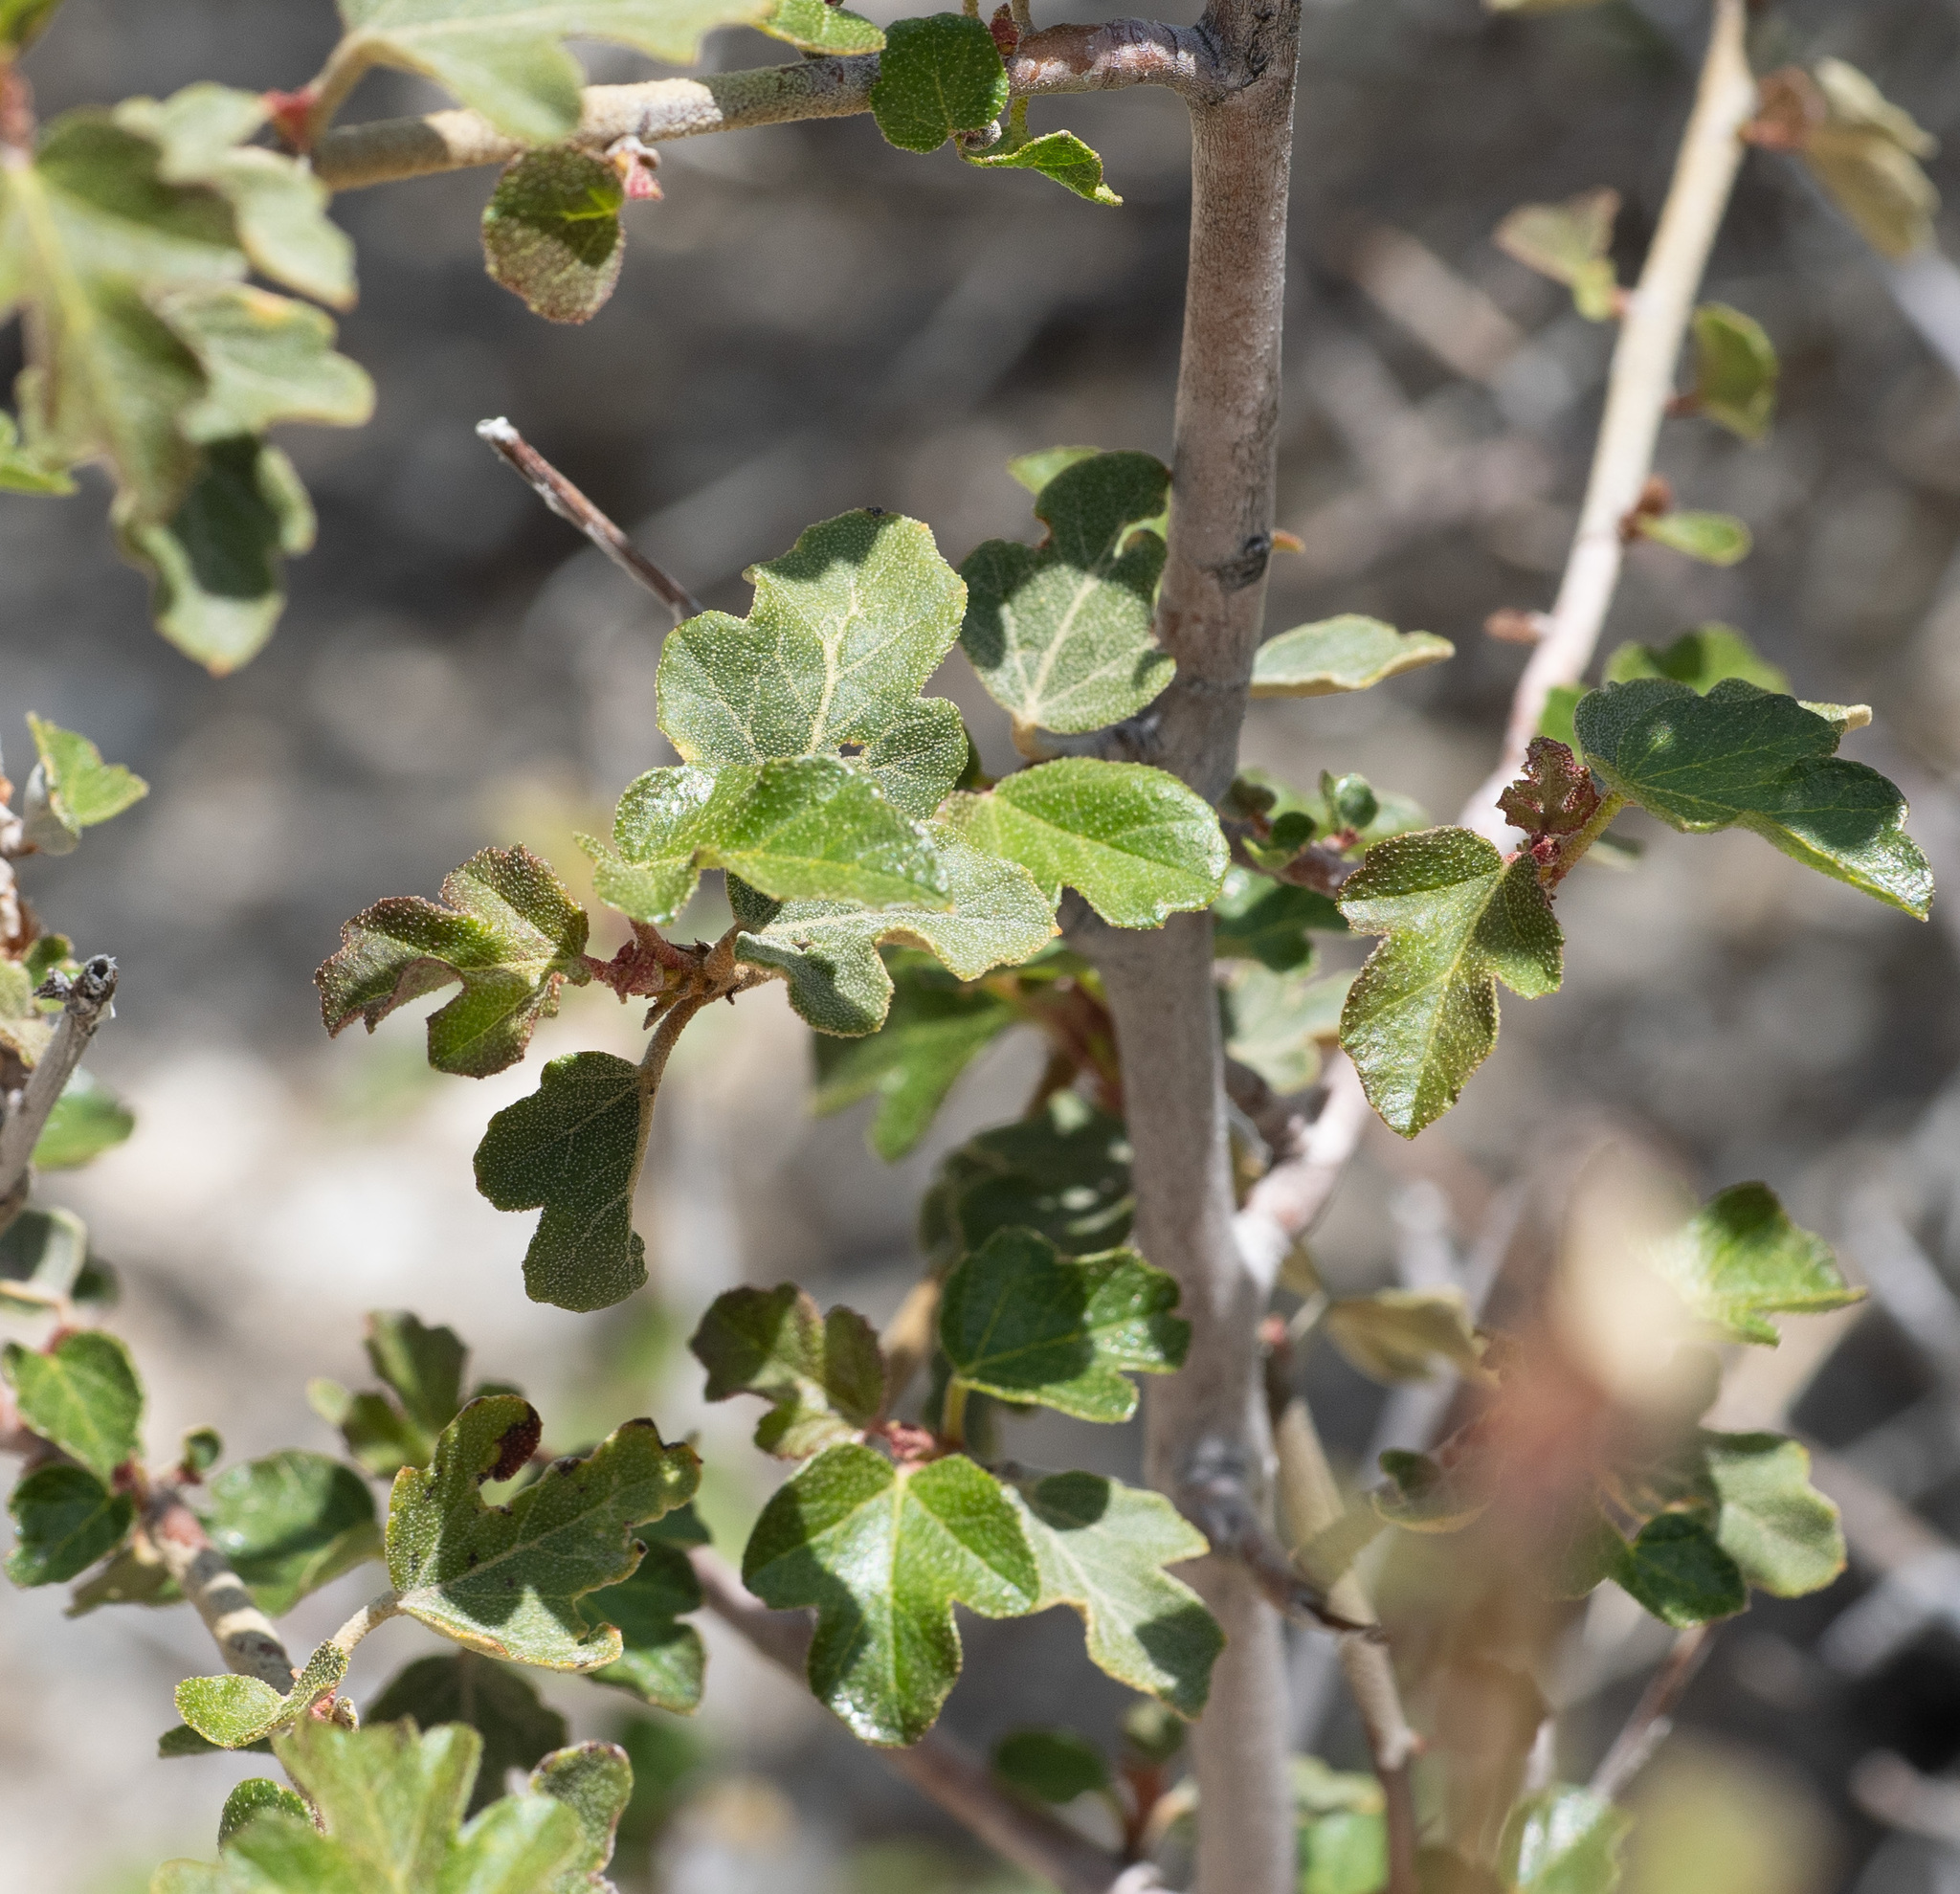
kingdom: Plantae
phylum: Tracheophyta
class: Magnoliopsida
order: Malvales
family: Malvaceae
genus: Fremontodendron
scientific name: Fremontodendron californicum
